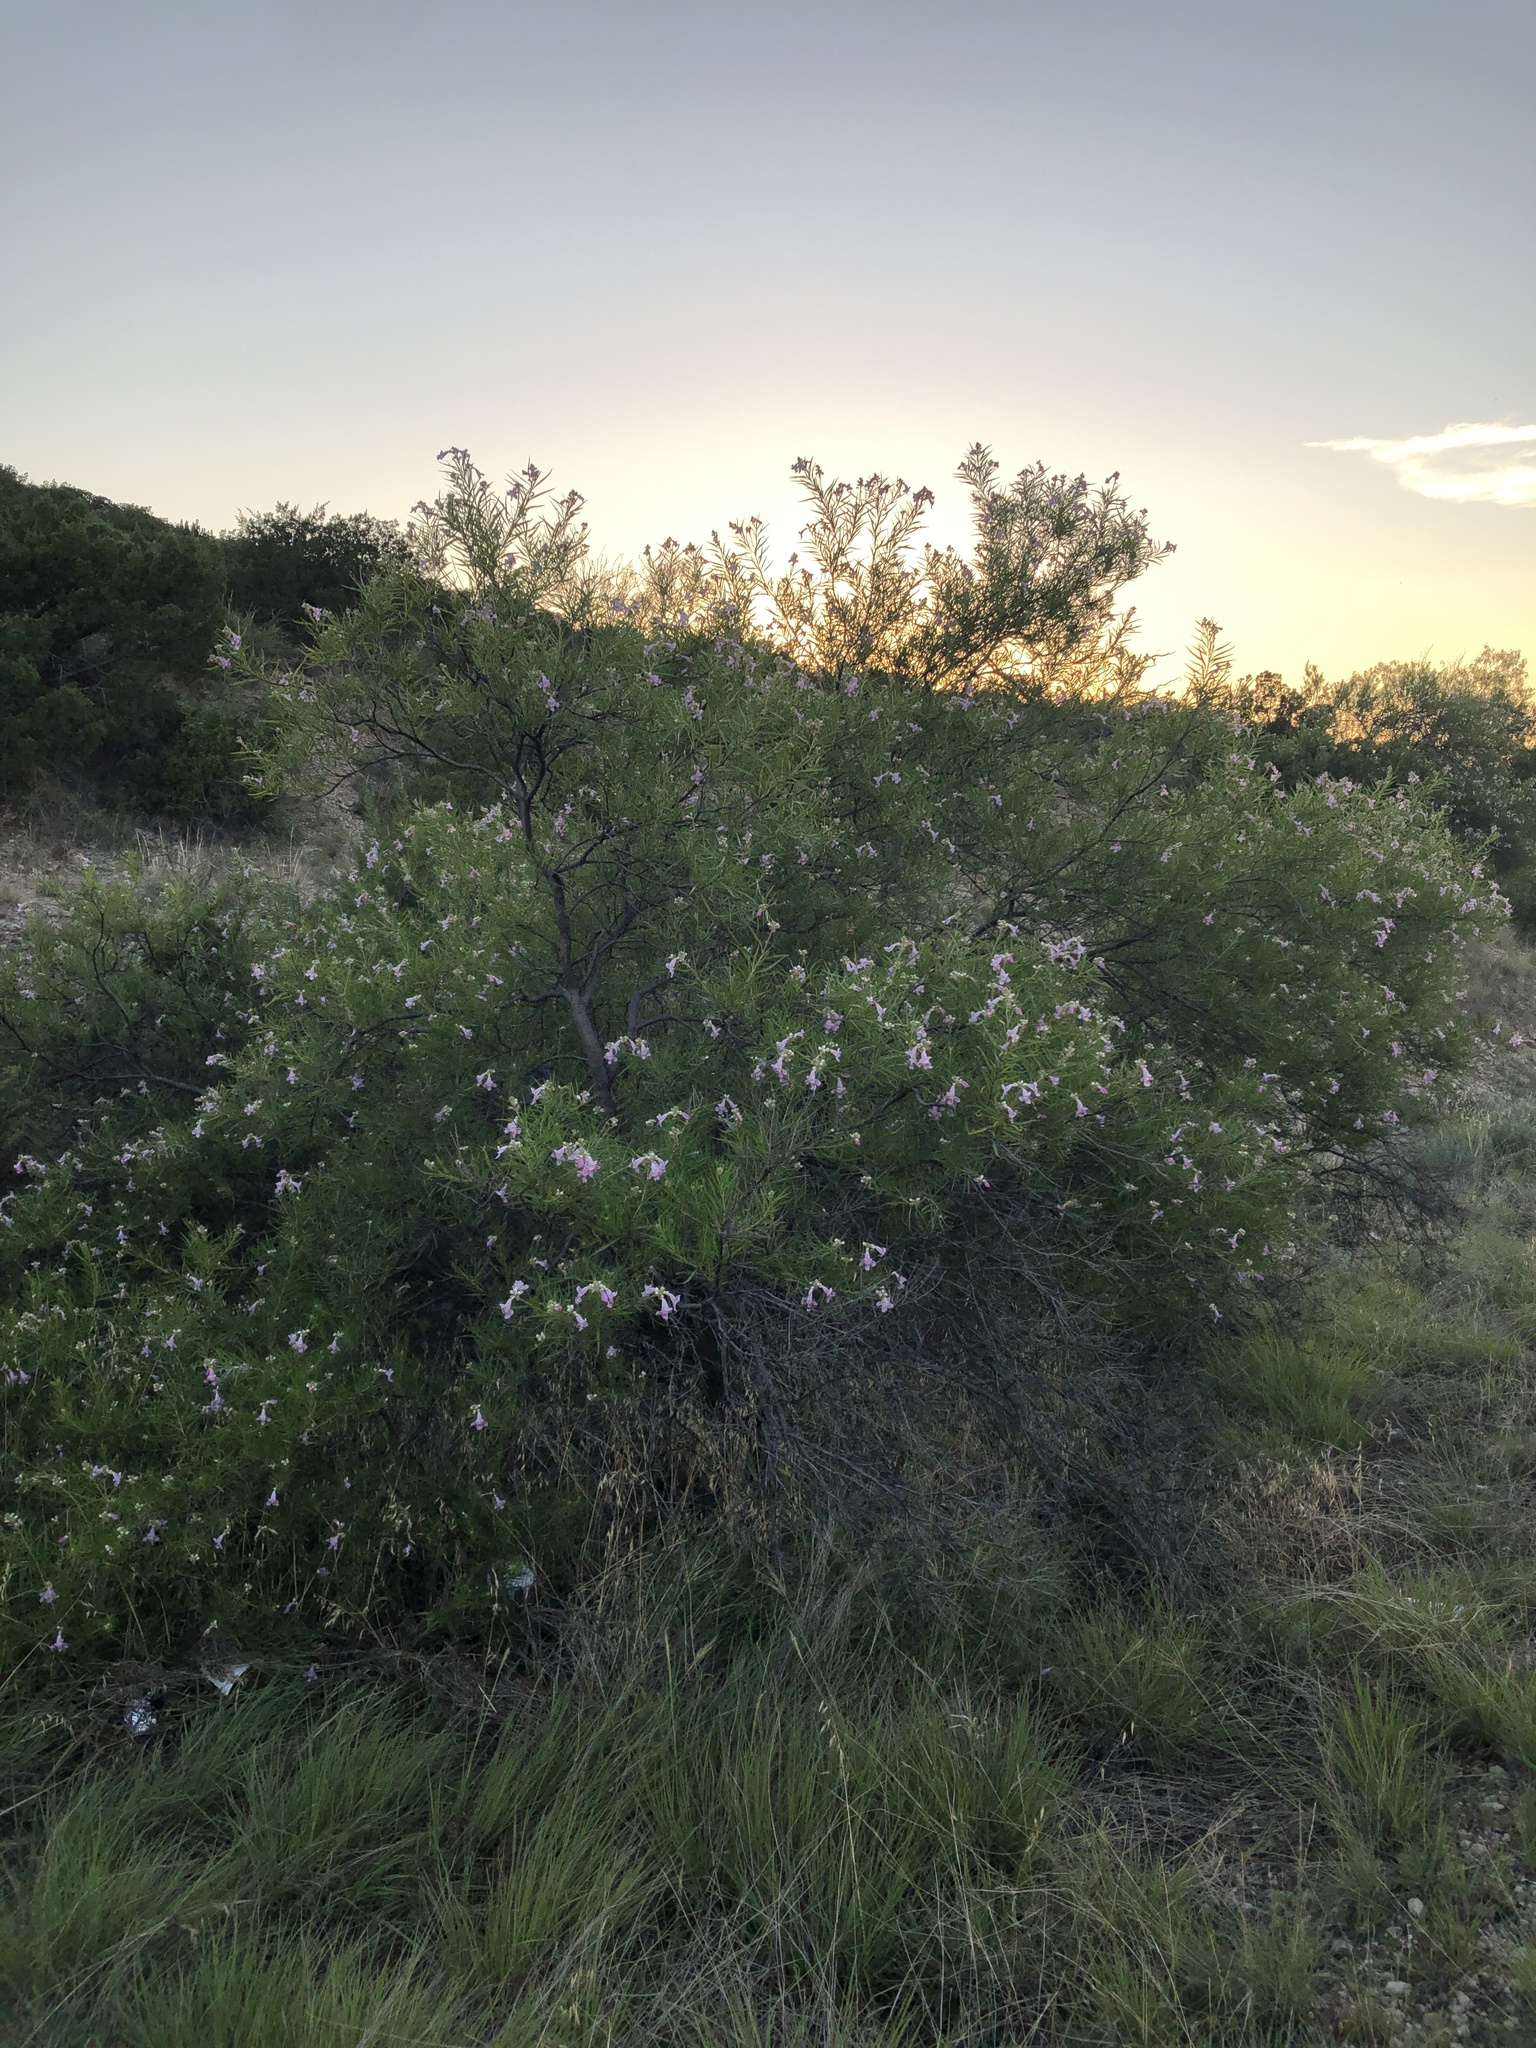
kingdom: Plantae
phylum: Tracheophyta
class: Magnoliopsida
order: Lamiales
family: Bignoniaceae
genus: Chilopsis
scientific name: Chilopsis linearis
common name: Desert-willow
